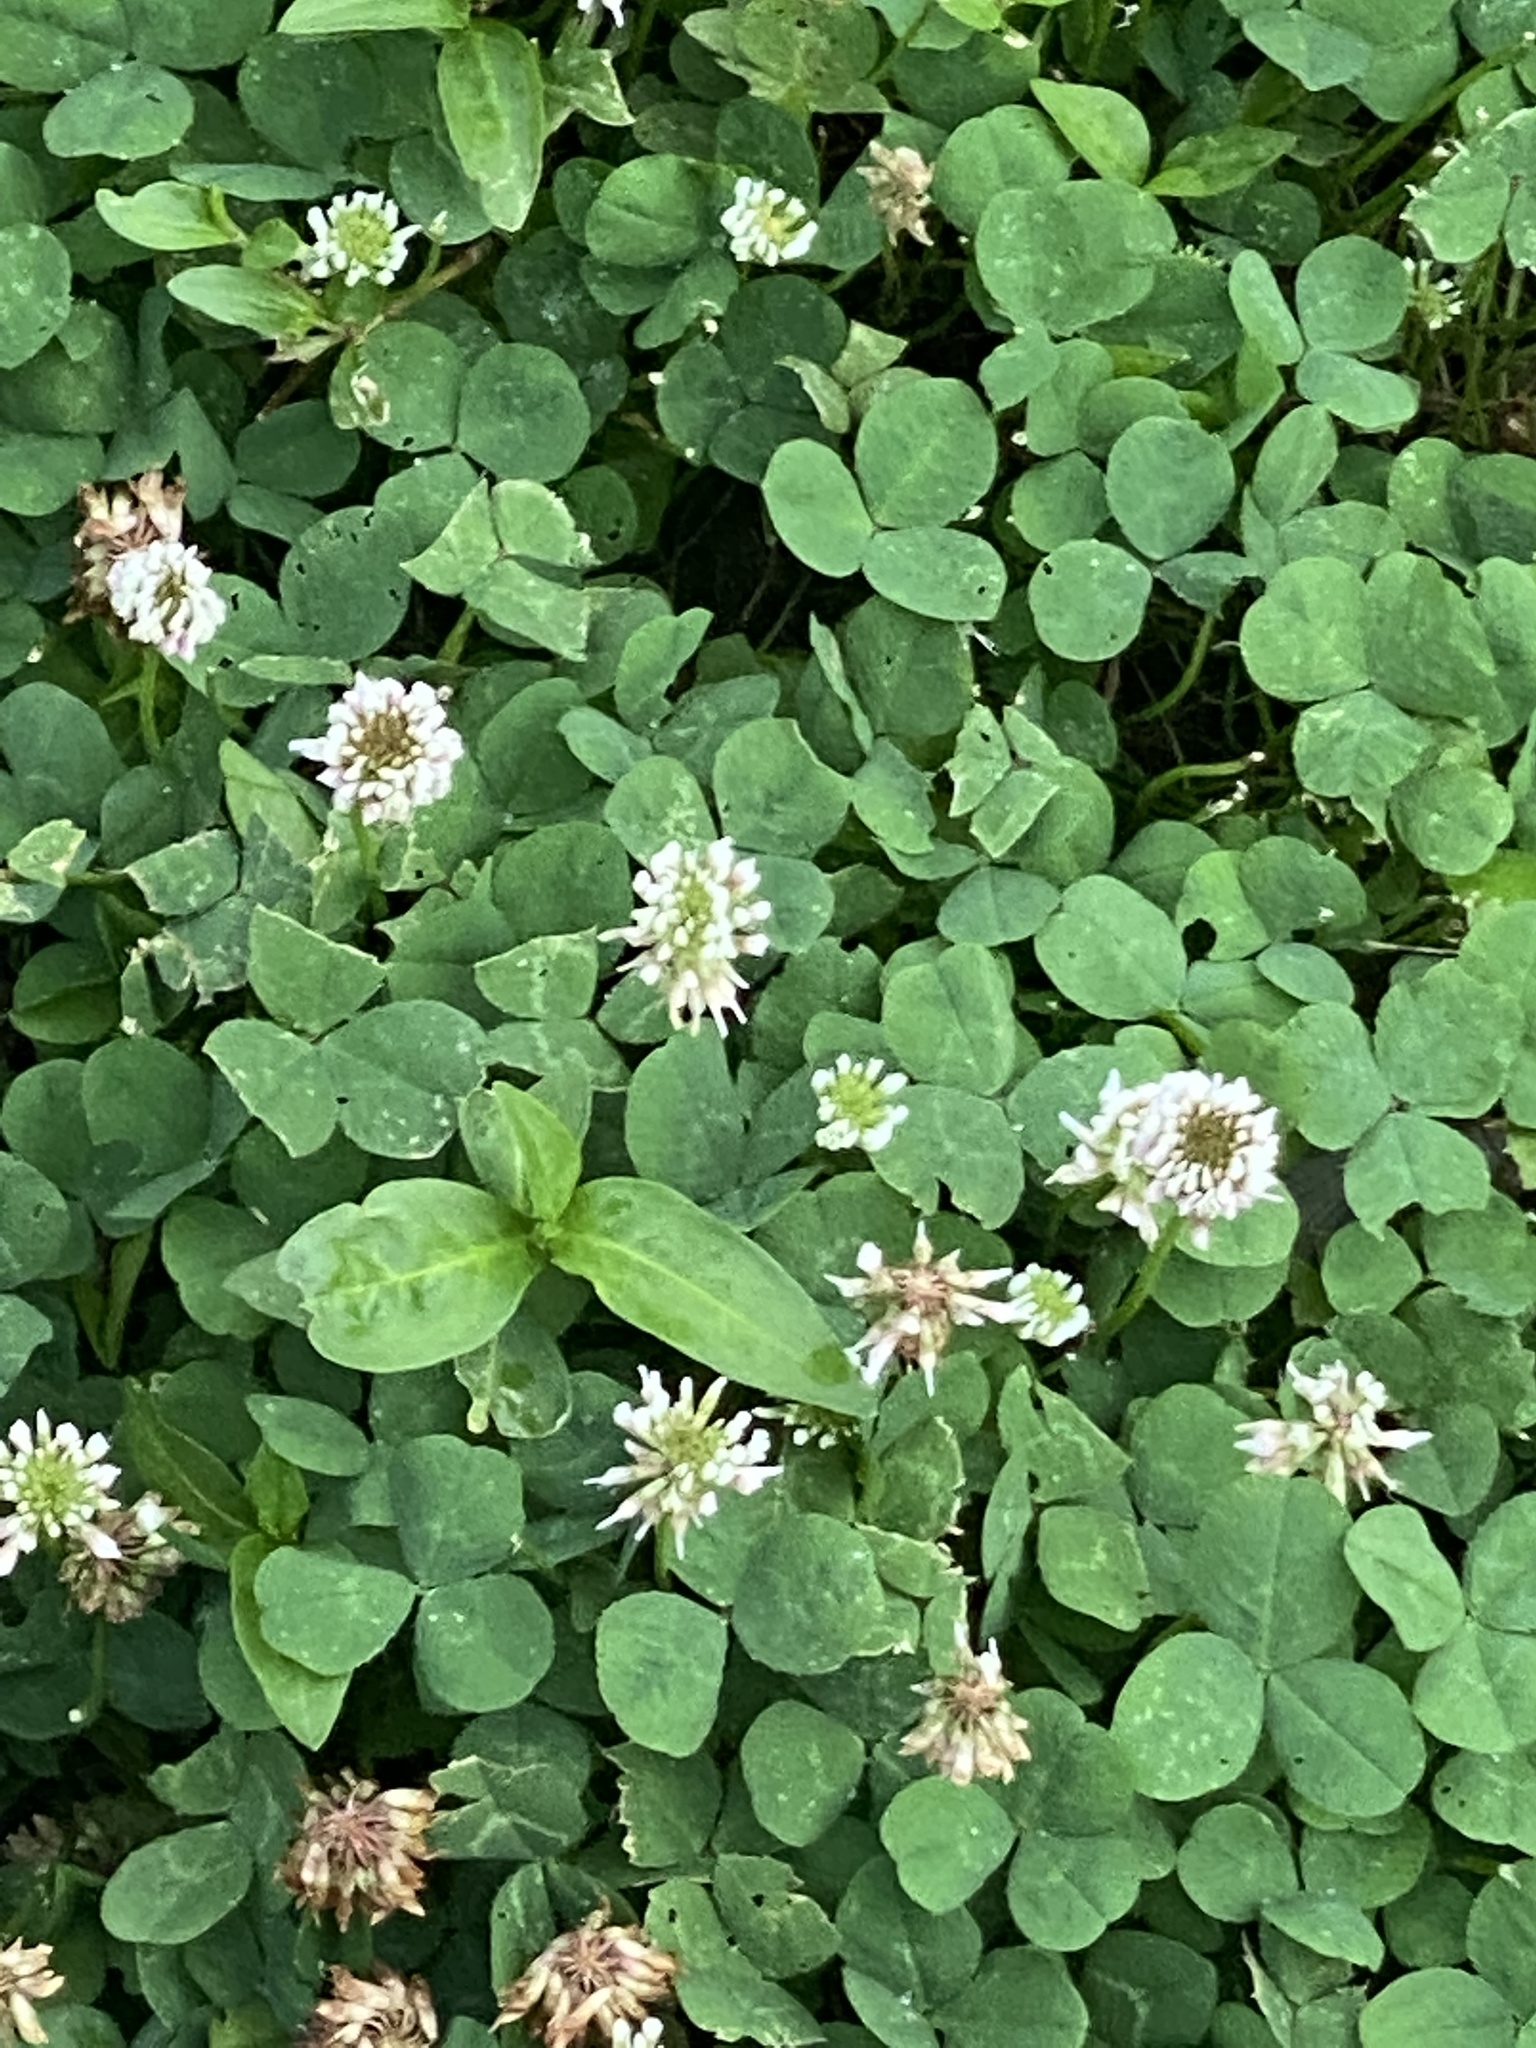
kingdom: Plantae
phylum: Tracheophyta
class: Magnoliopsida
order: Fabales
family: Fabaceae
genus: Trifolium
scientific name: Trifolium repens
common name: White clover
